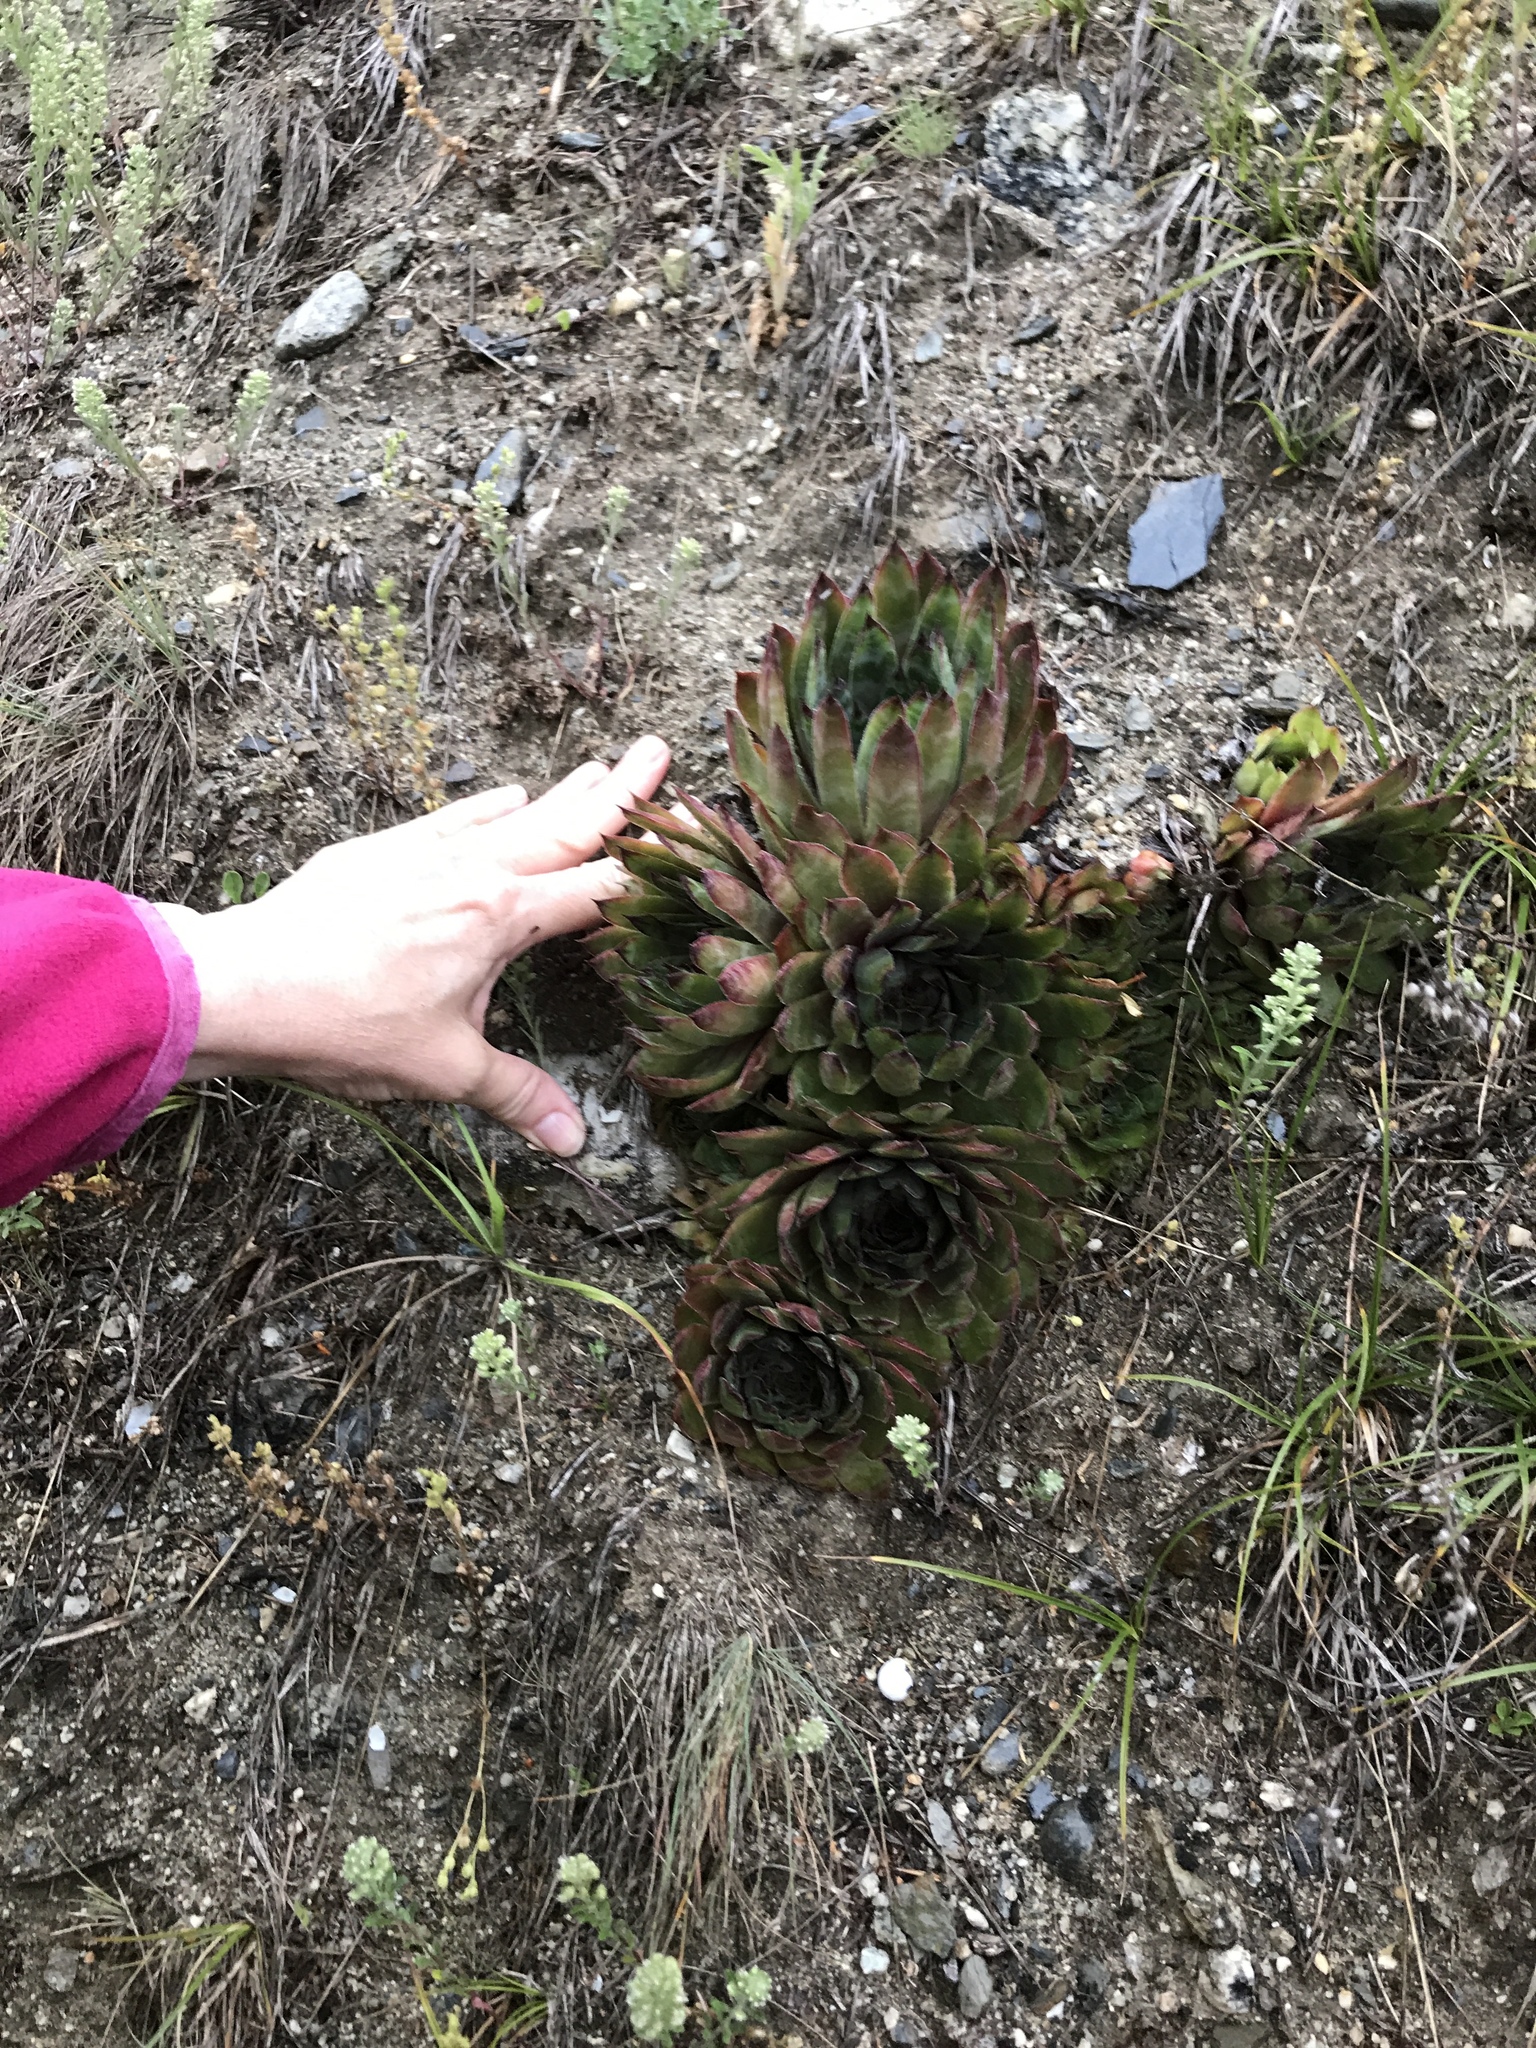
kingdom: Plantae
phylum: Tracheophyta
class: Magnoliopsida
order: Saxifragales
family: Crassulaceae
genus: Sempervivum
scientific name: Sempervivum tectorum
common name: House-leek
